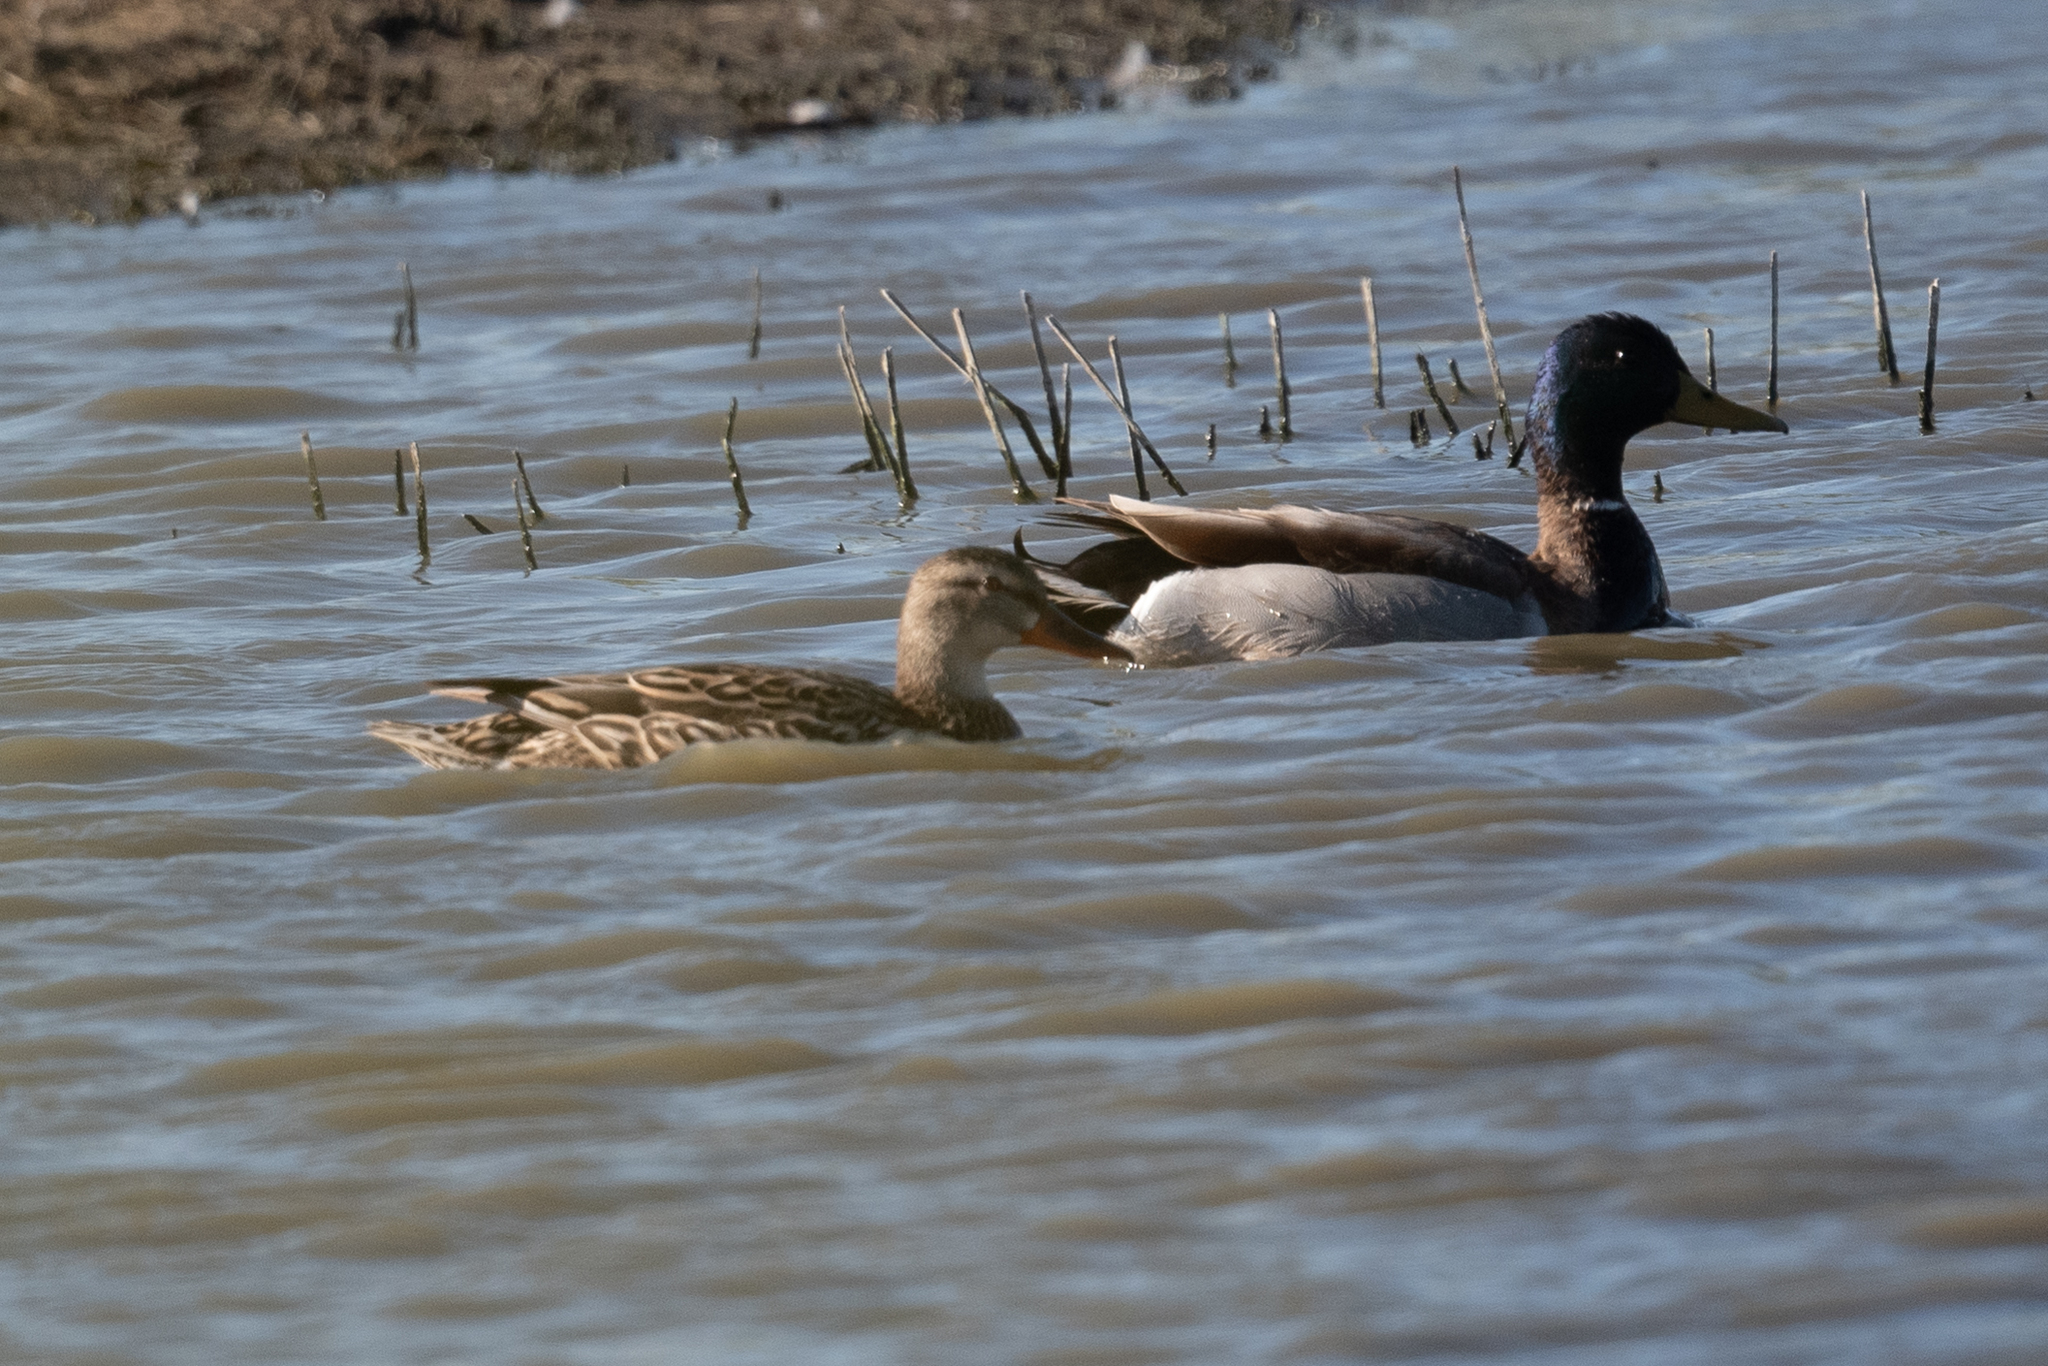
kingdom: Animalia
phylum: Chordata
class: Aves
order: Anseriformes
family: Anatidae
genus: Anas
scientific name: Anas platyrhynchos
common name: Mallard
